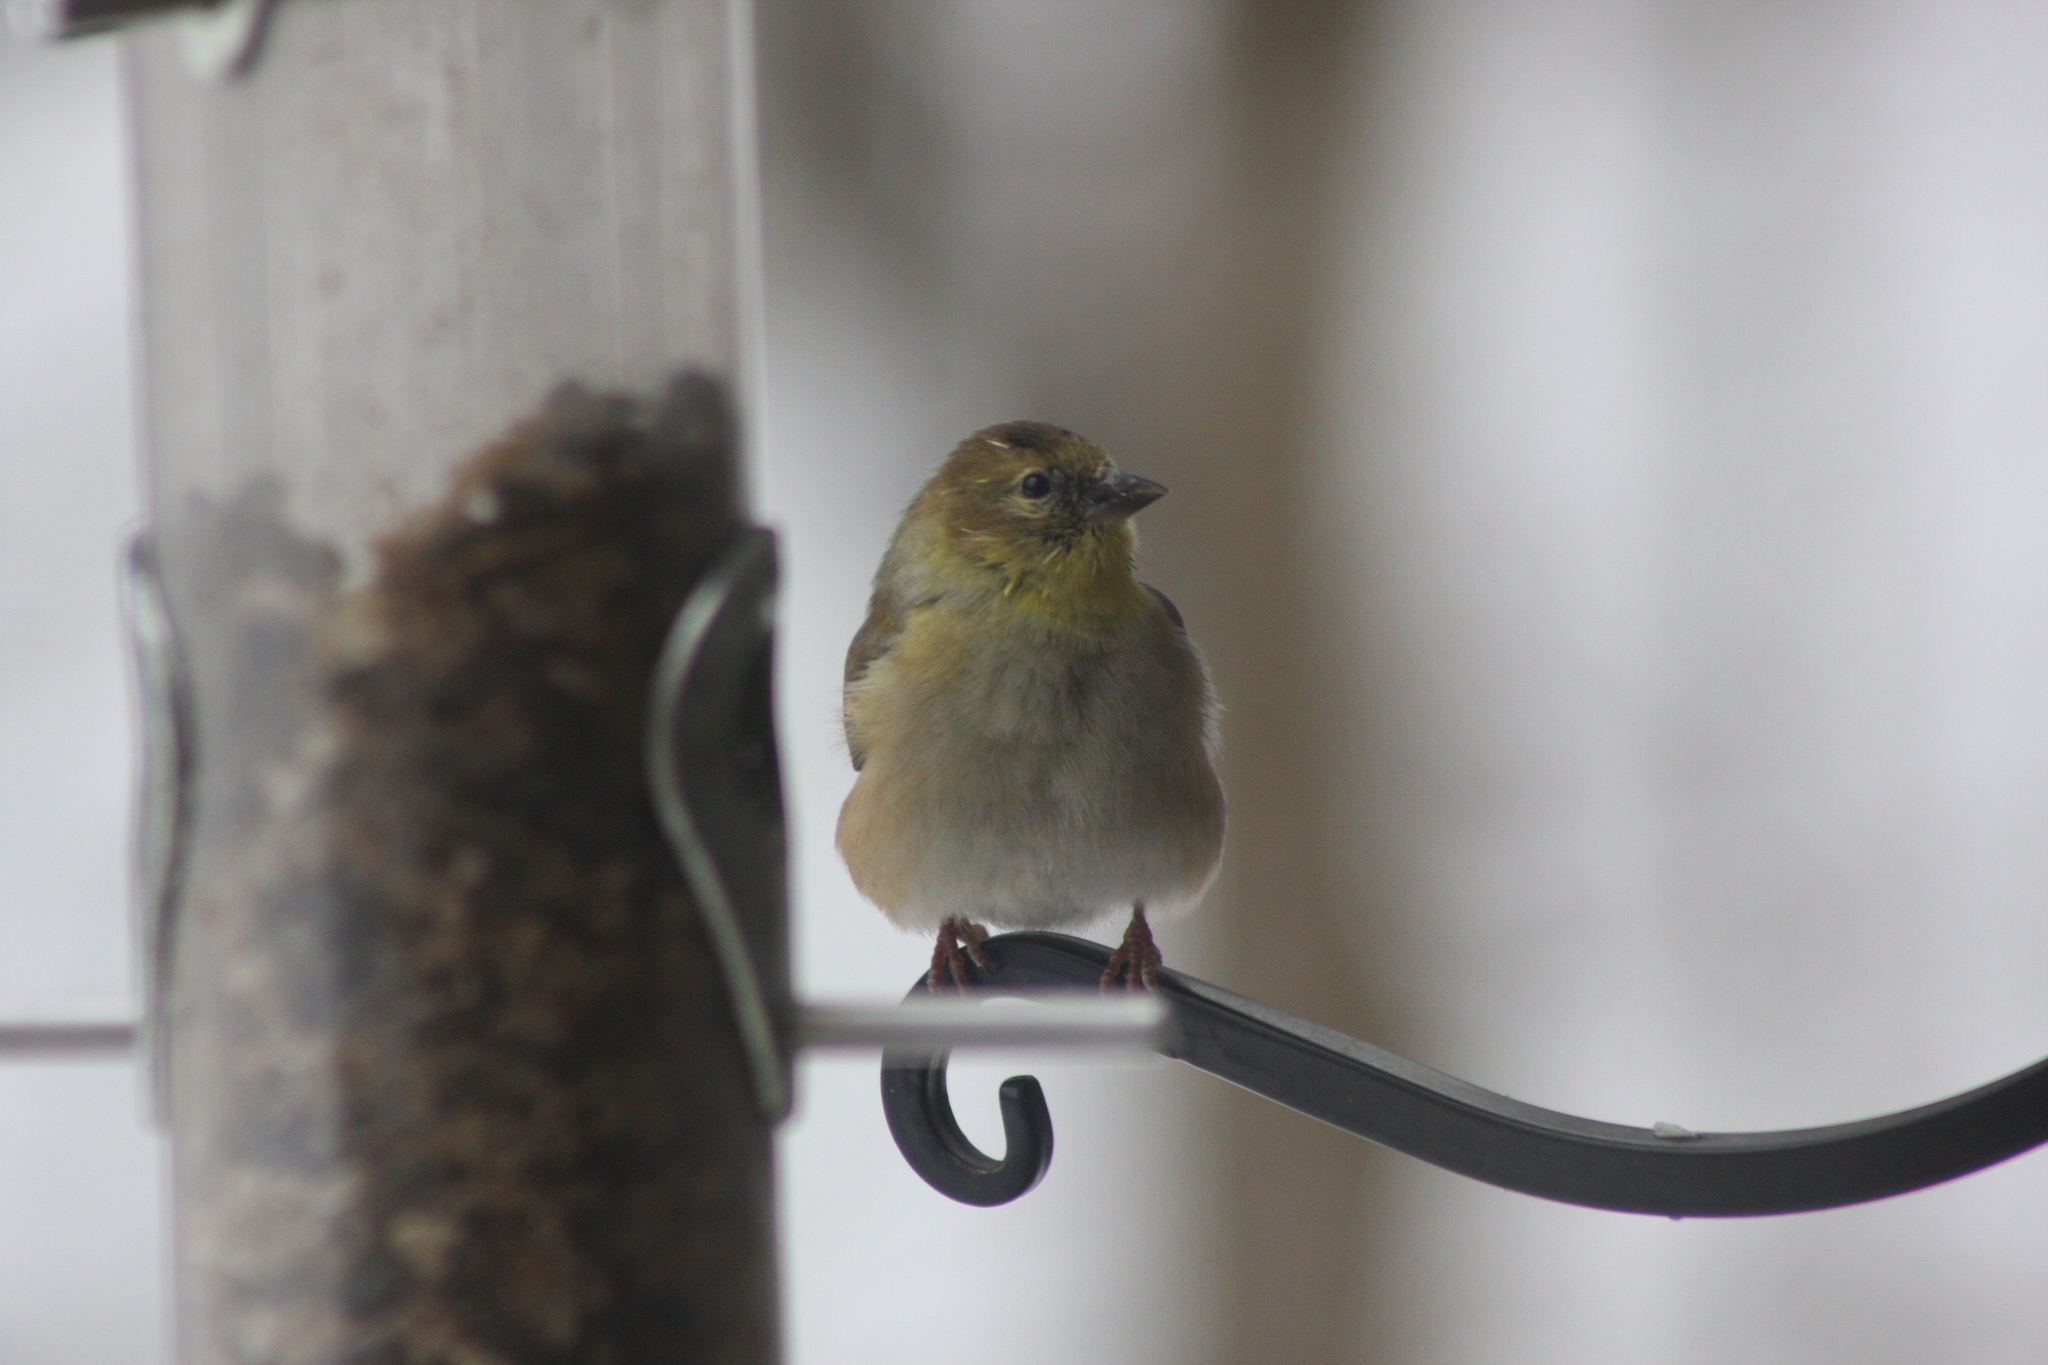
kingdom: Animalia
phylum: Chordata
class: Aves
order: Passeriformes
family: Fringillidae
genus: Spinus
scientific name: Spinus tristis
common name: American goldfinch
